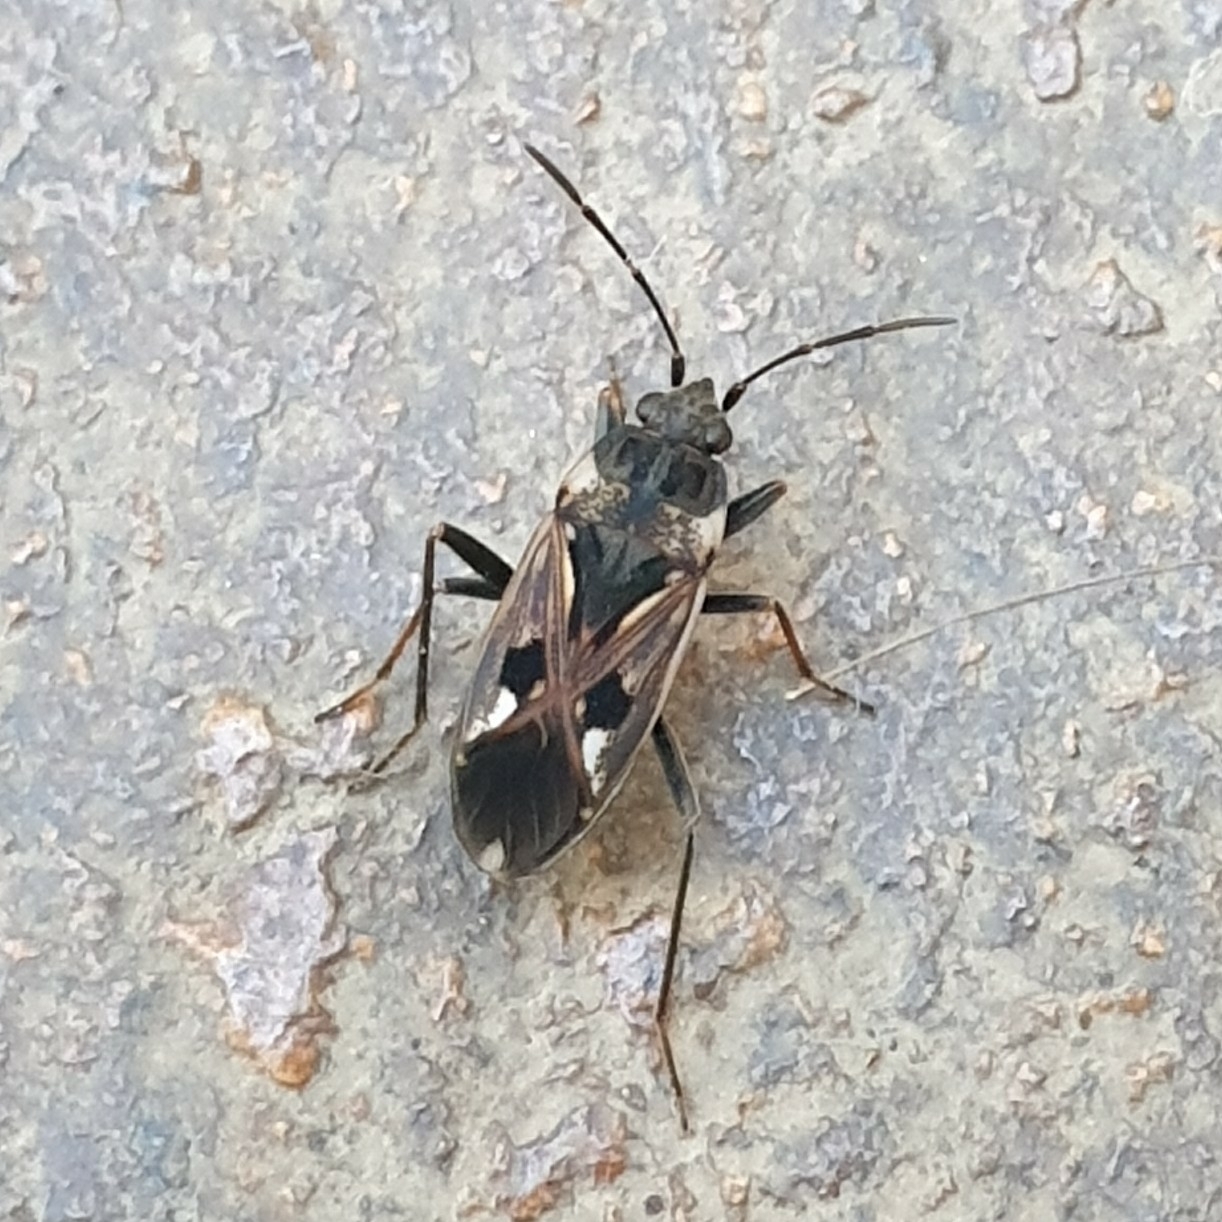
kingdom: Animalia
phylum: Arthropoda
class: Insecta
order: Hemiptera
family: Rhyparochromidae
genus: Rhyparochromus
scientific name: Rhyparochromus vulgaris
